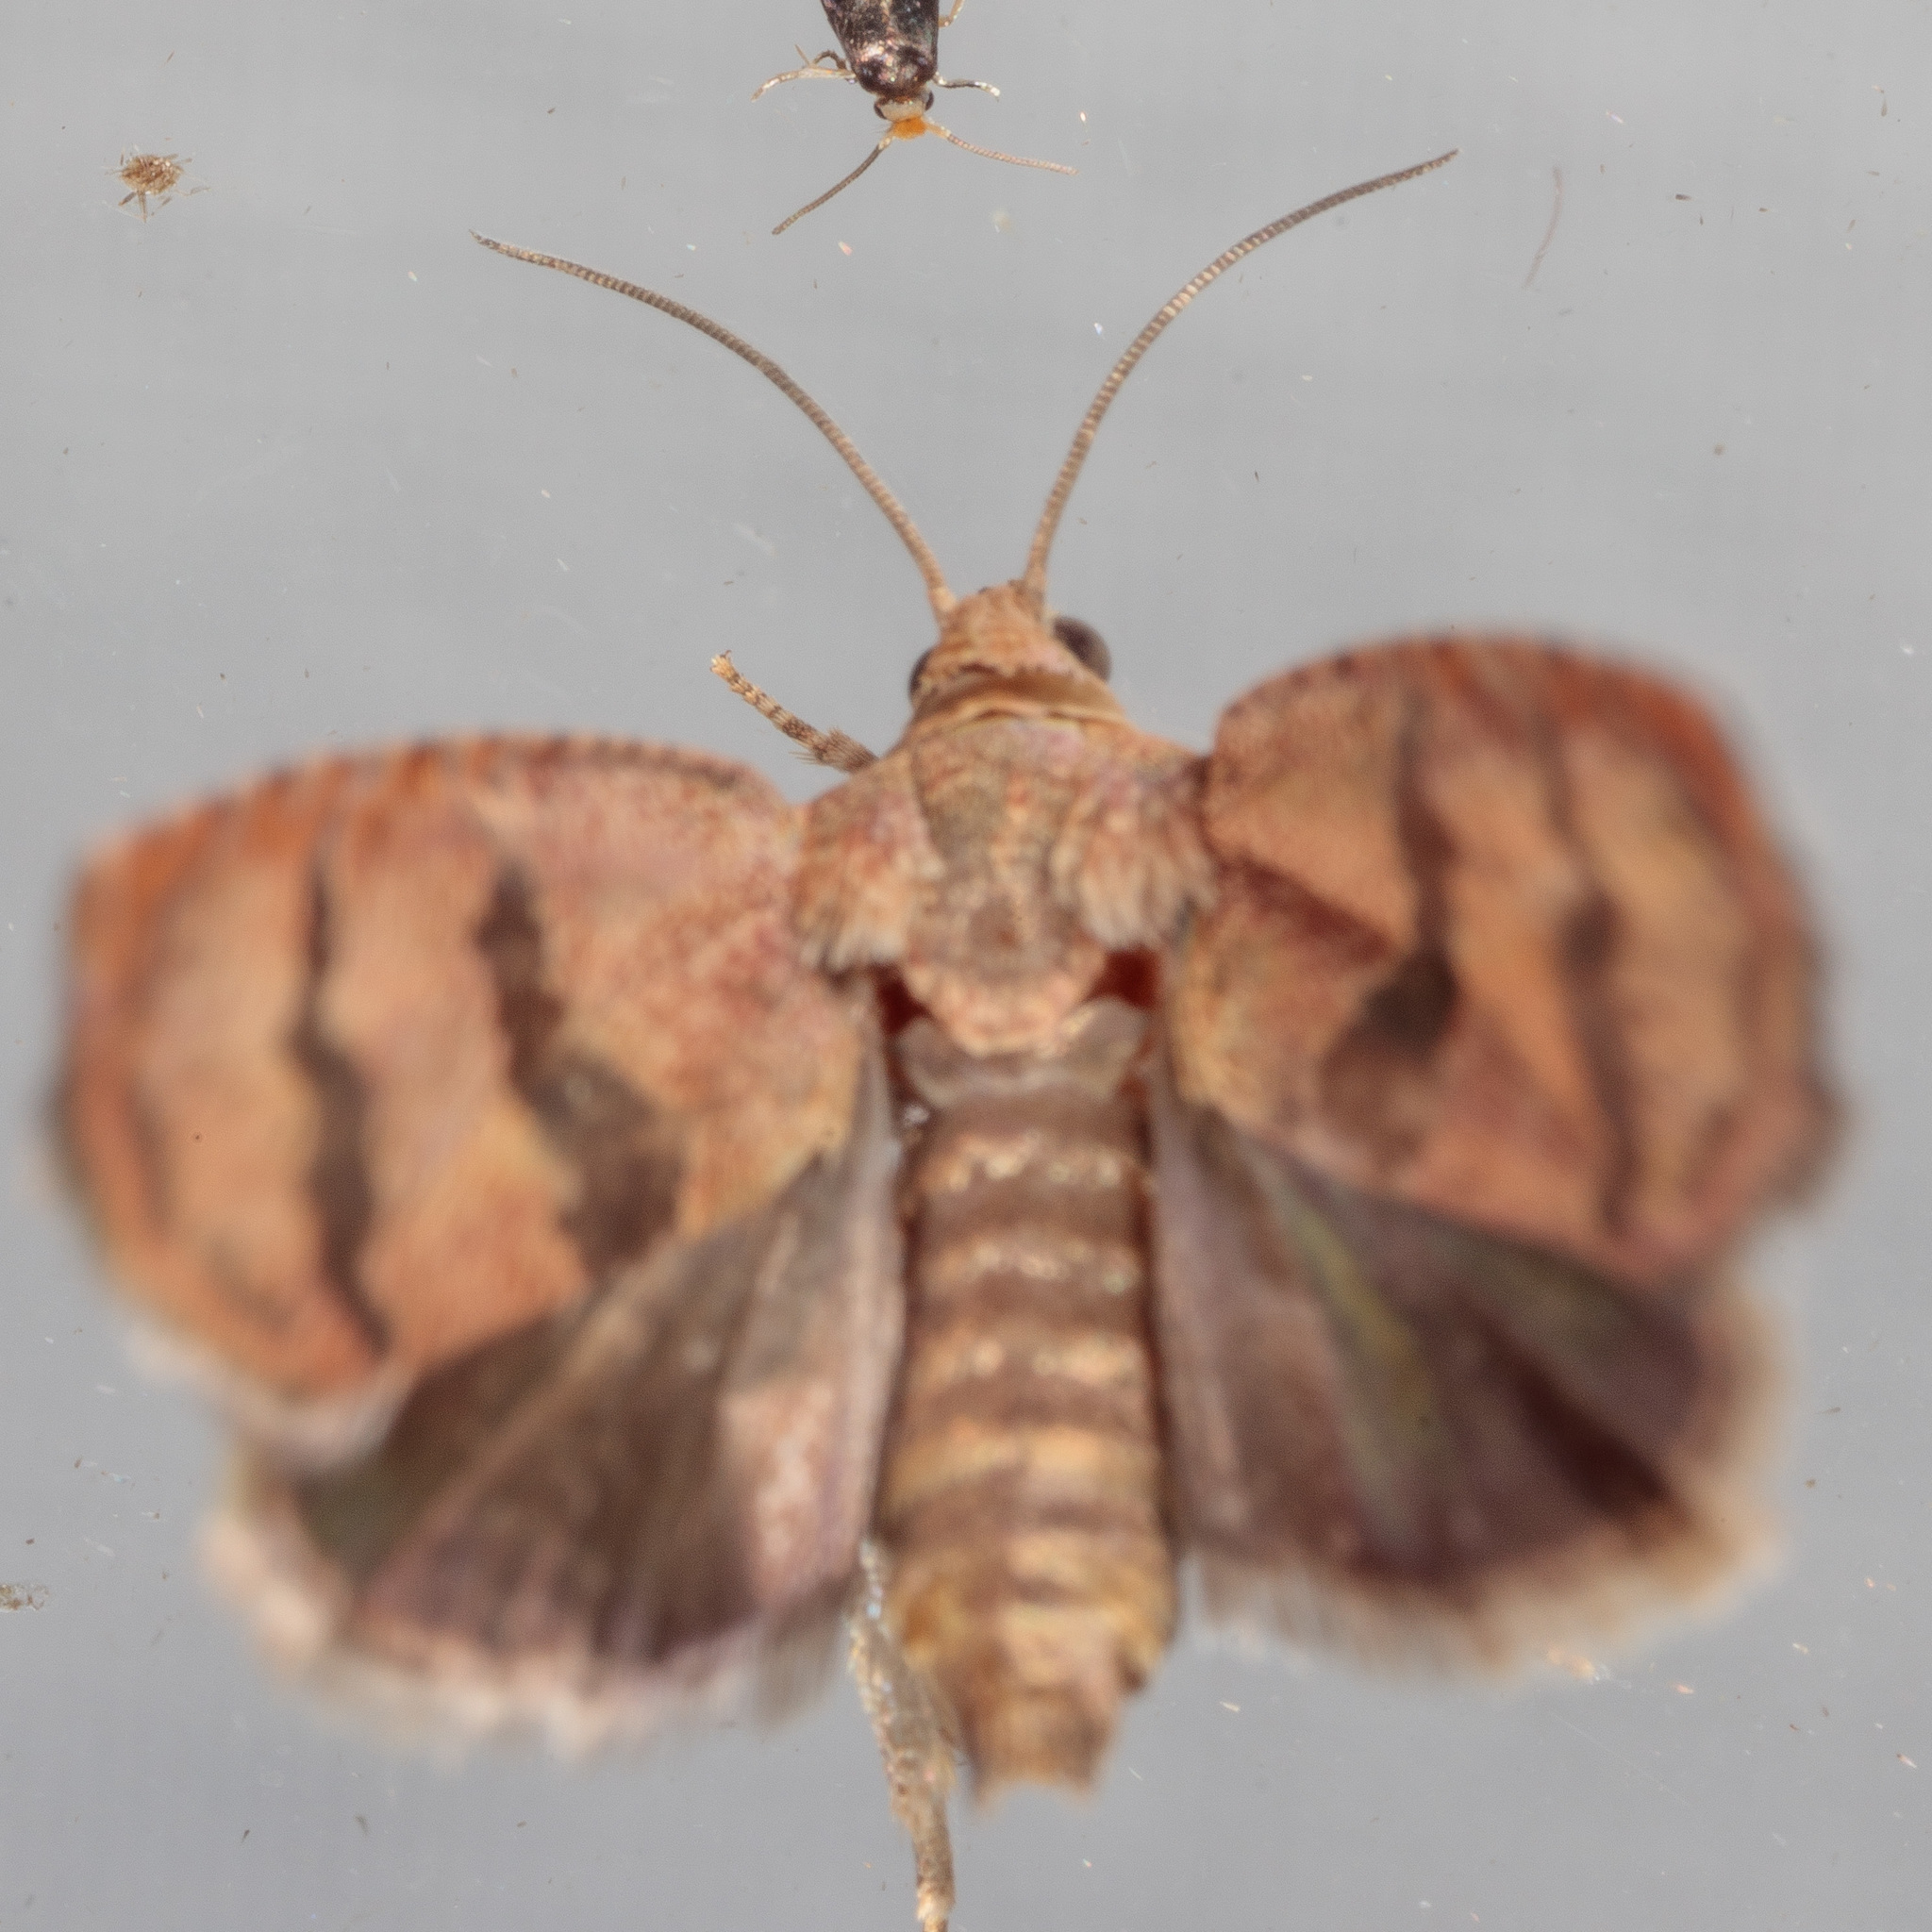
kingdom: Animalia
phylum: Arthropoda
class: Insecta
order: Lepidoptera
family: Tortricidae
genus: Cydia
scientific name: Cydia latiferreana
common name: Filbertworm moth
